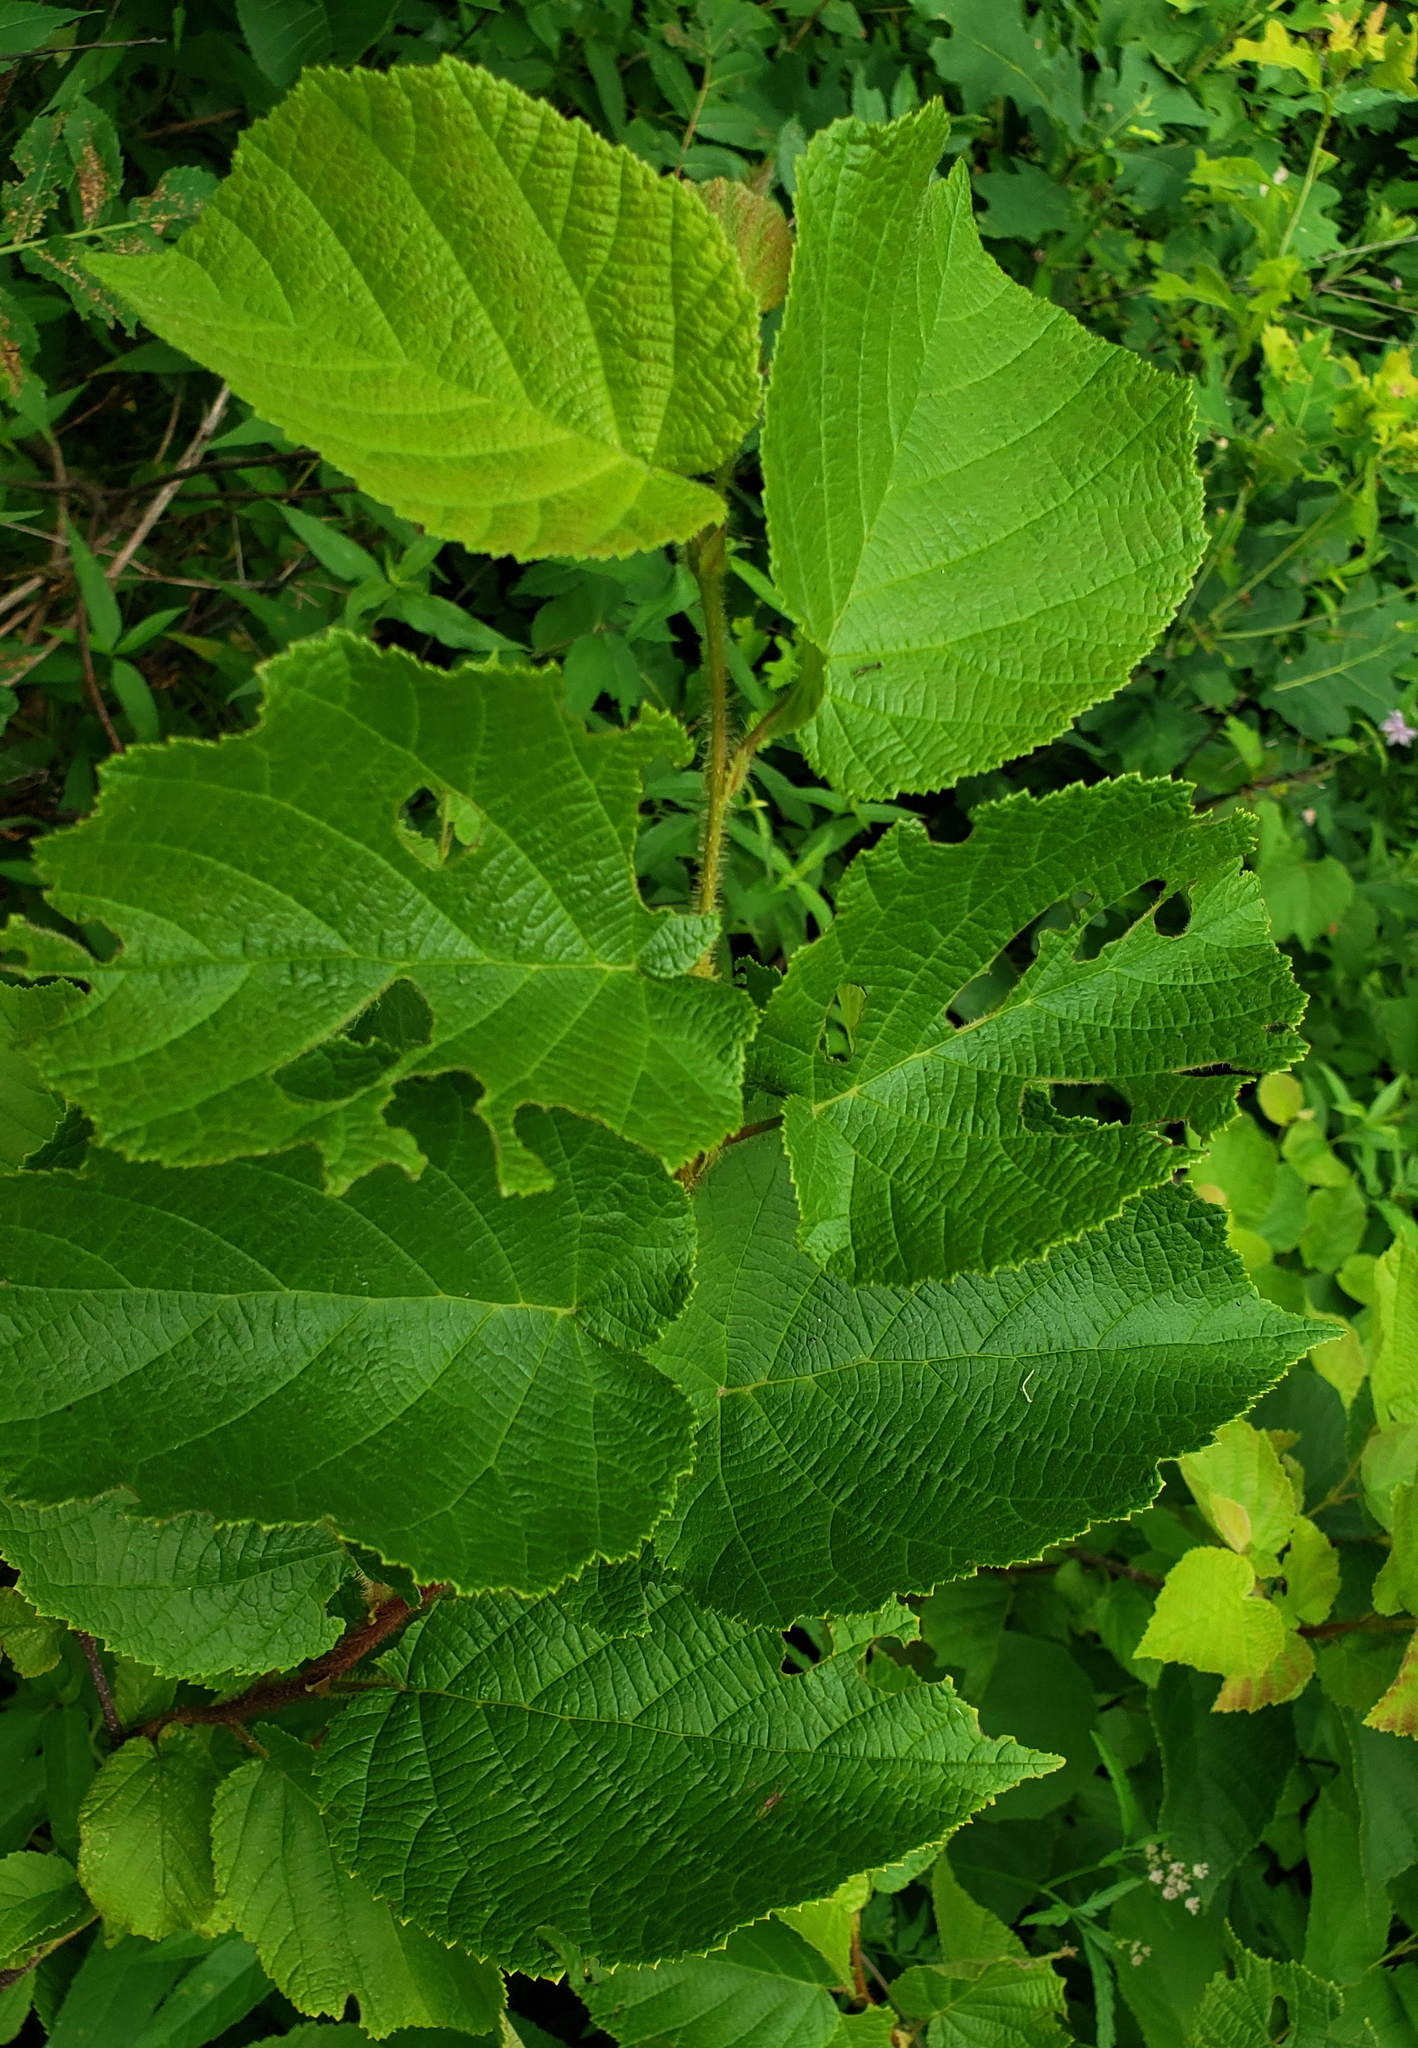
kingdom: Plantae
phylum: Tracheophyta
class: Magnoliopsida
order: Fagales
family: Betulaceae
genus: Corylus
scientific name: Corylus americana
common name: American hazel
